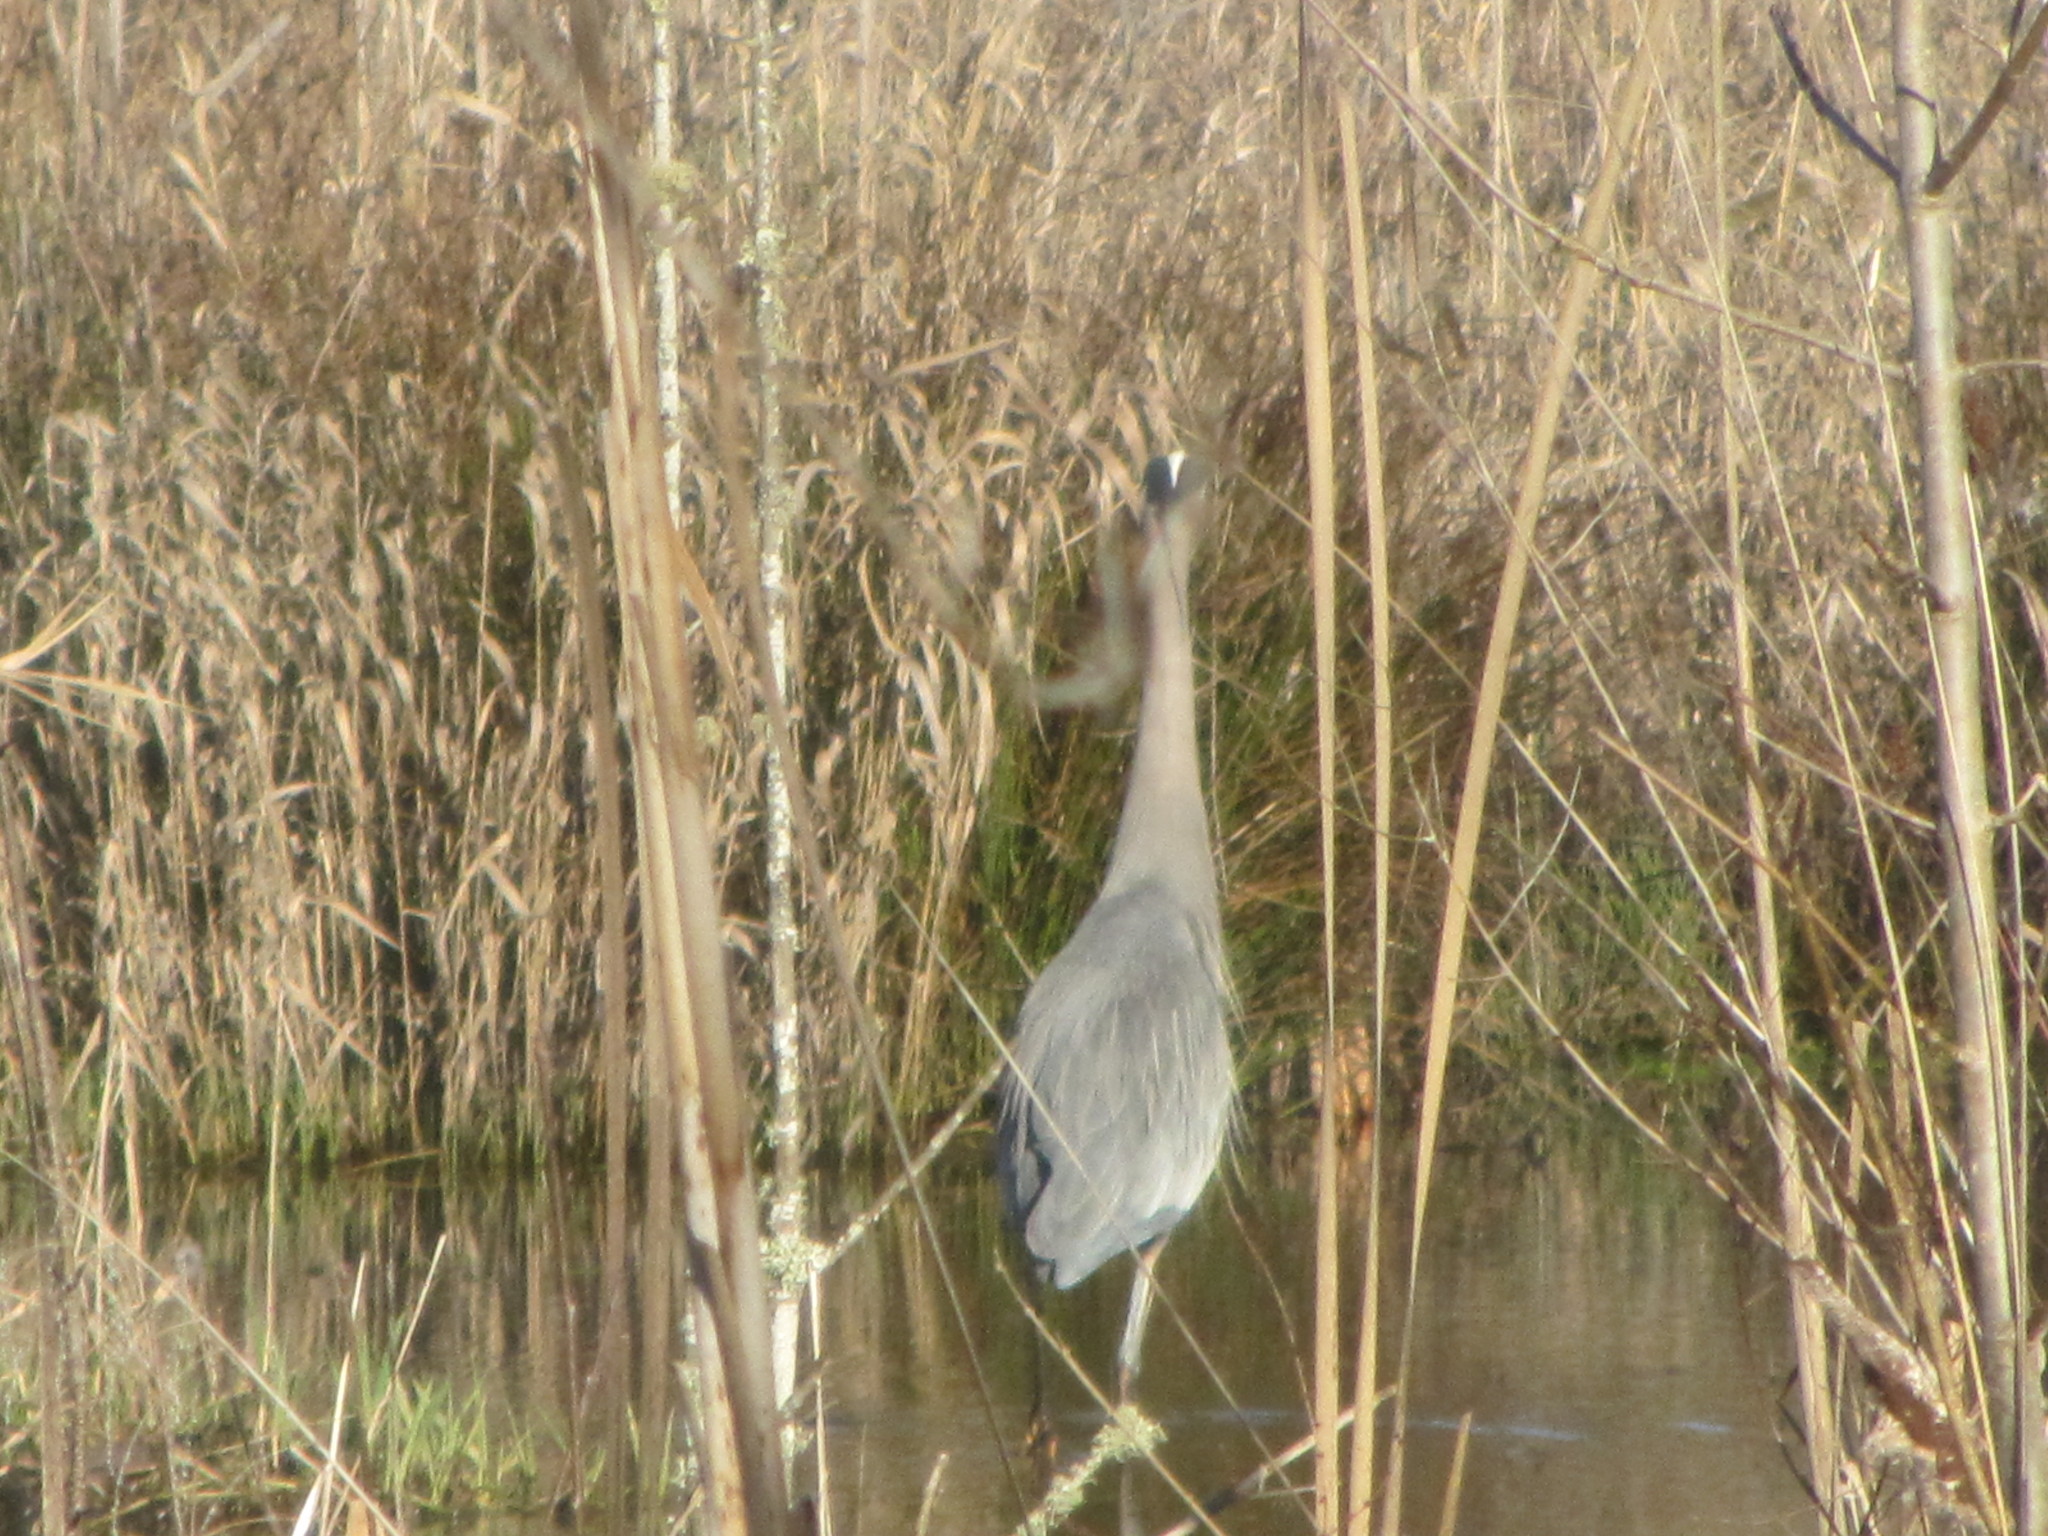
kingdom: Animalia
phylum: Chordata
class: Aves
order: Pelecaniformes
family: Ardeidae
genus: Ardea
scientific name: Ardea herodias
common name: Great blue heron
